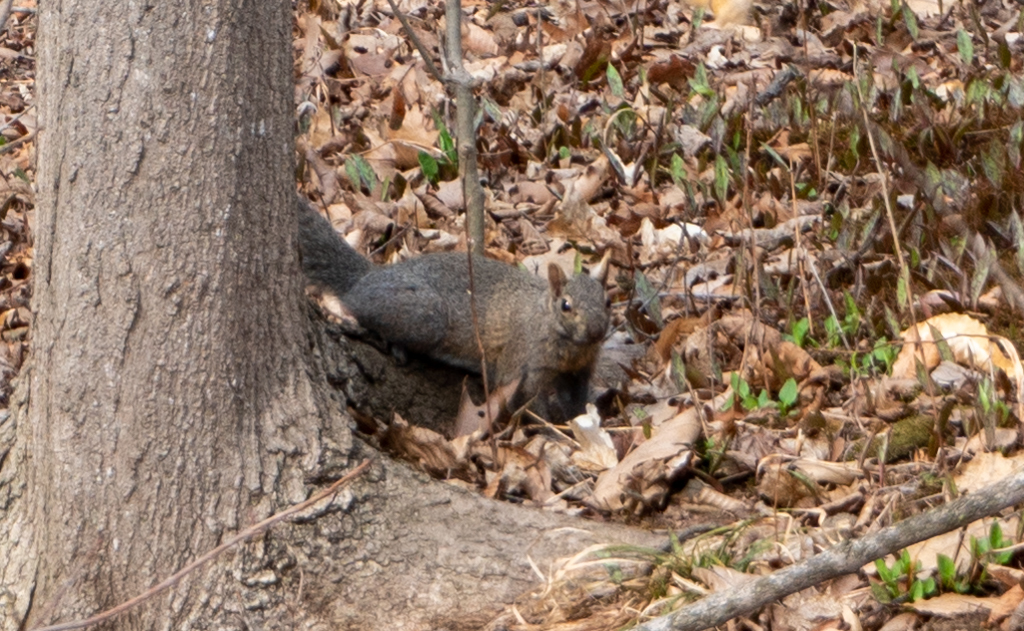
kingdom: Animalia
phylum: Chordata
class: Mammalia
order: Rodentia
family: Sciuridae
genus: Sciurus
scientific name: Sciurus carolinensis
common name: Eastern gray squirrel
